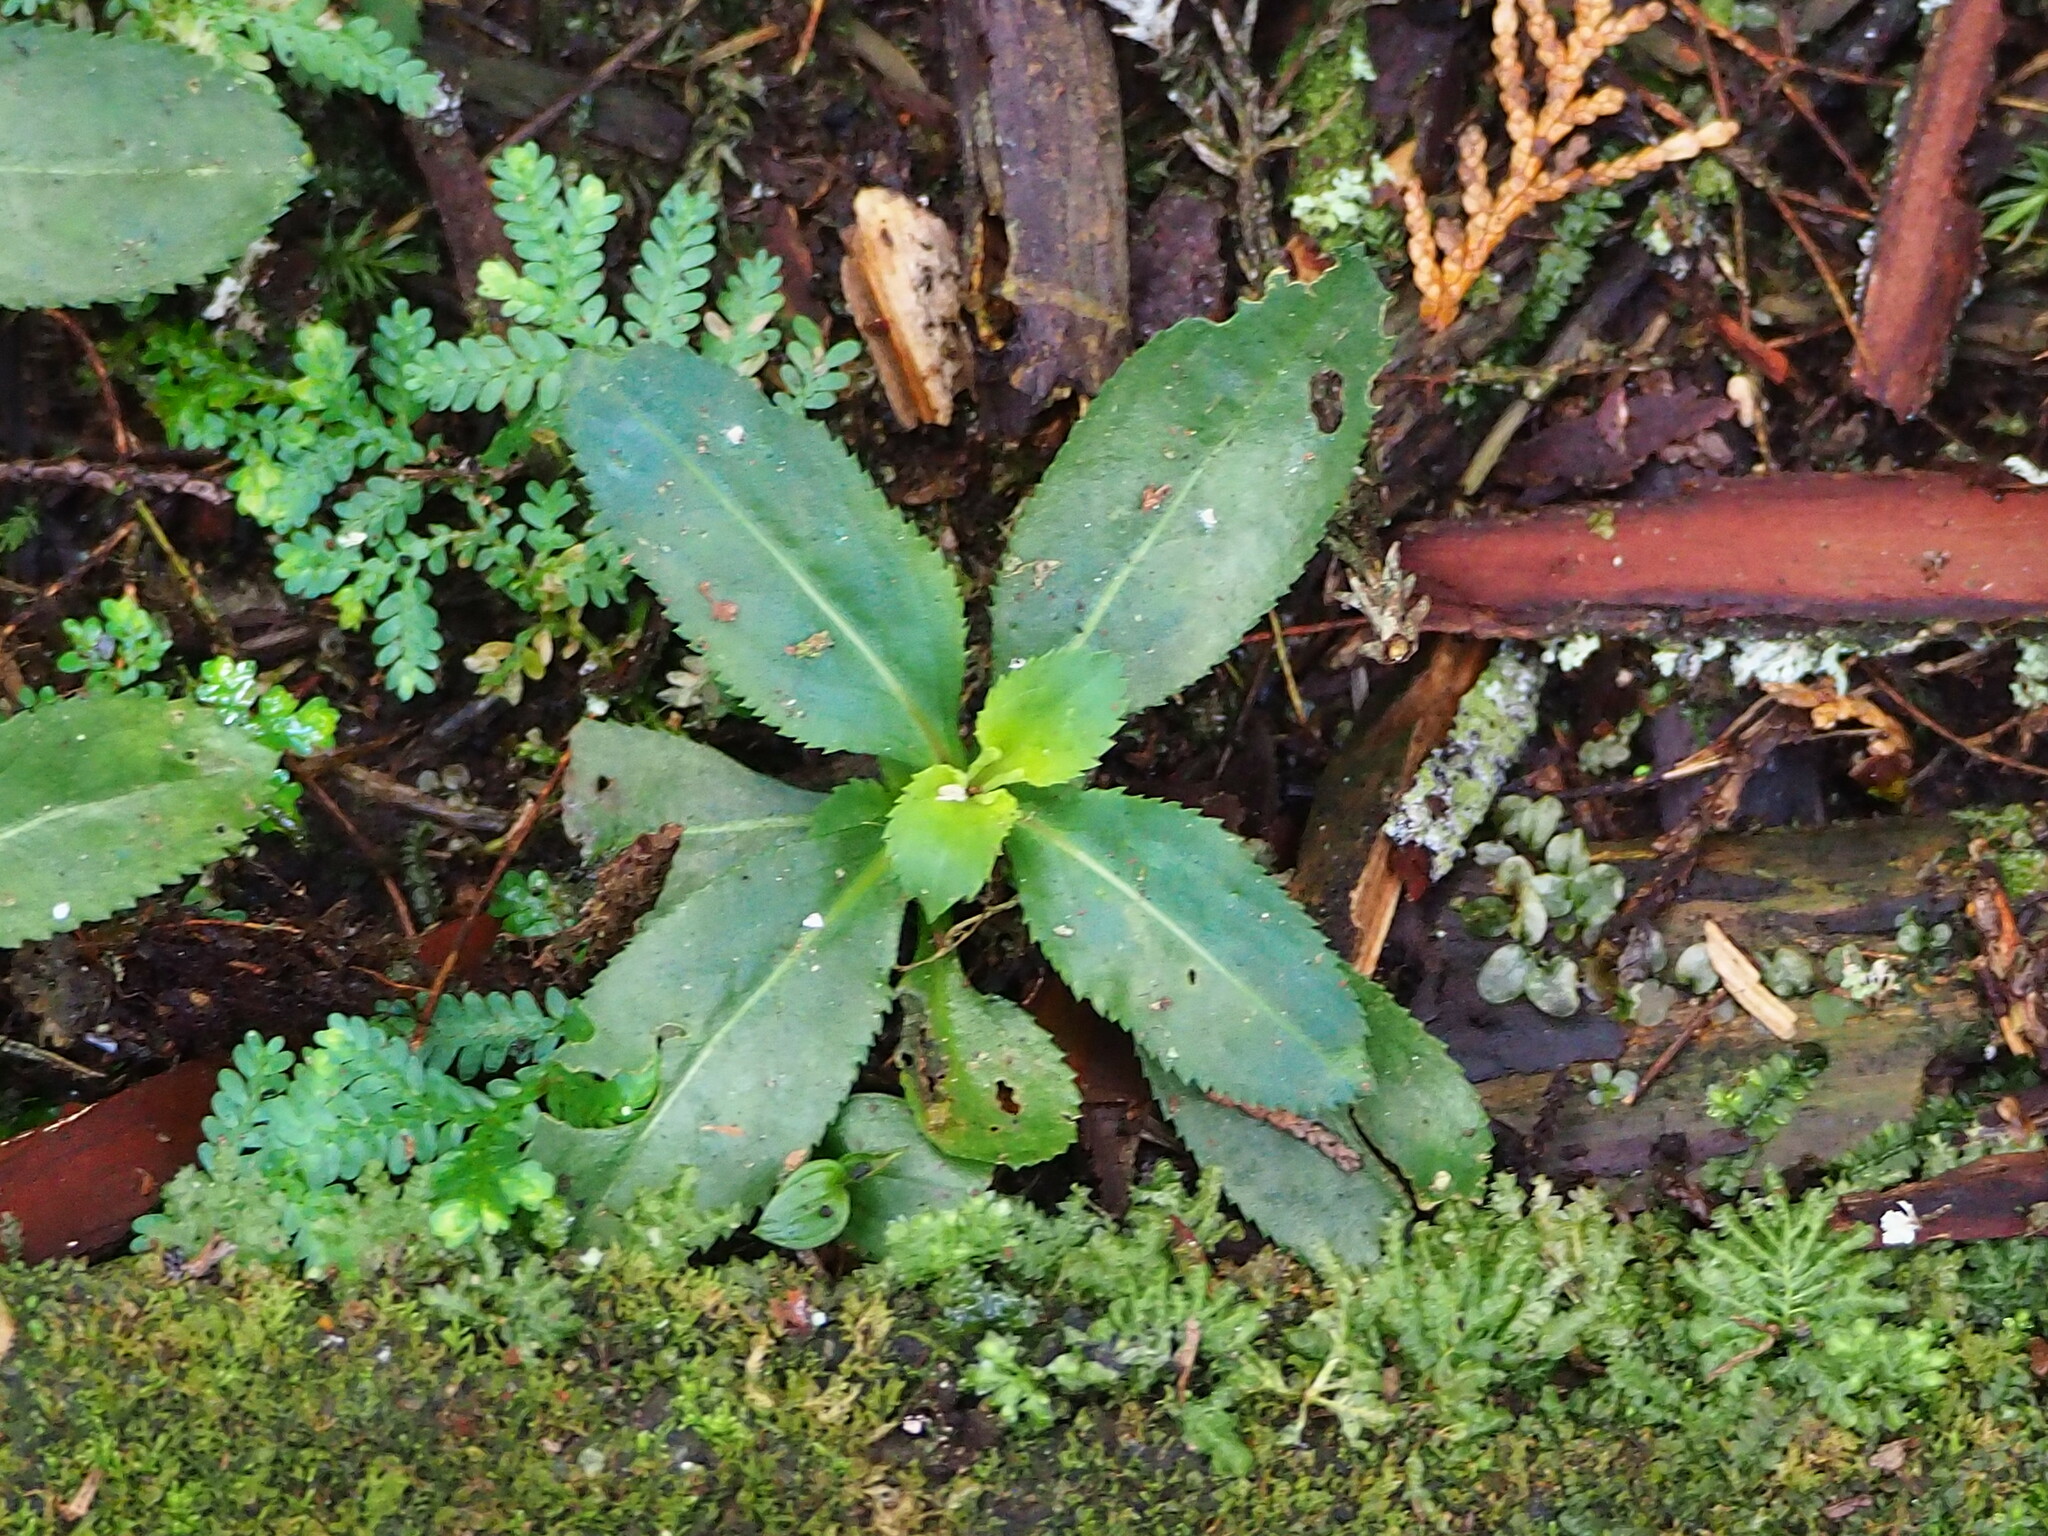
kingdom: Plantae
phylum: Tracheophyta
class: Magnoliopsida
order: Lamiales
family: Linderniaceae
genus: Bonnaya
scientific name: Bonnaya ruelloides
